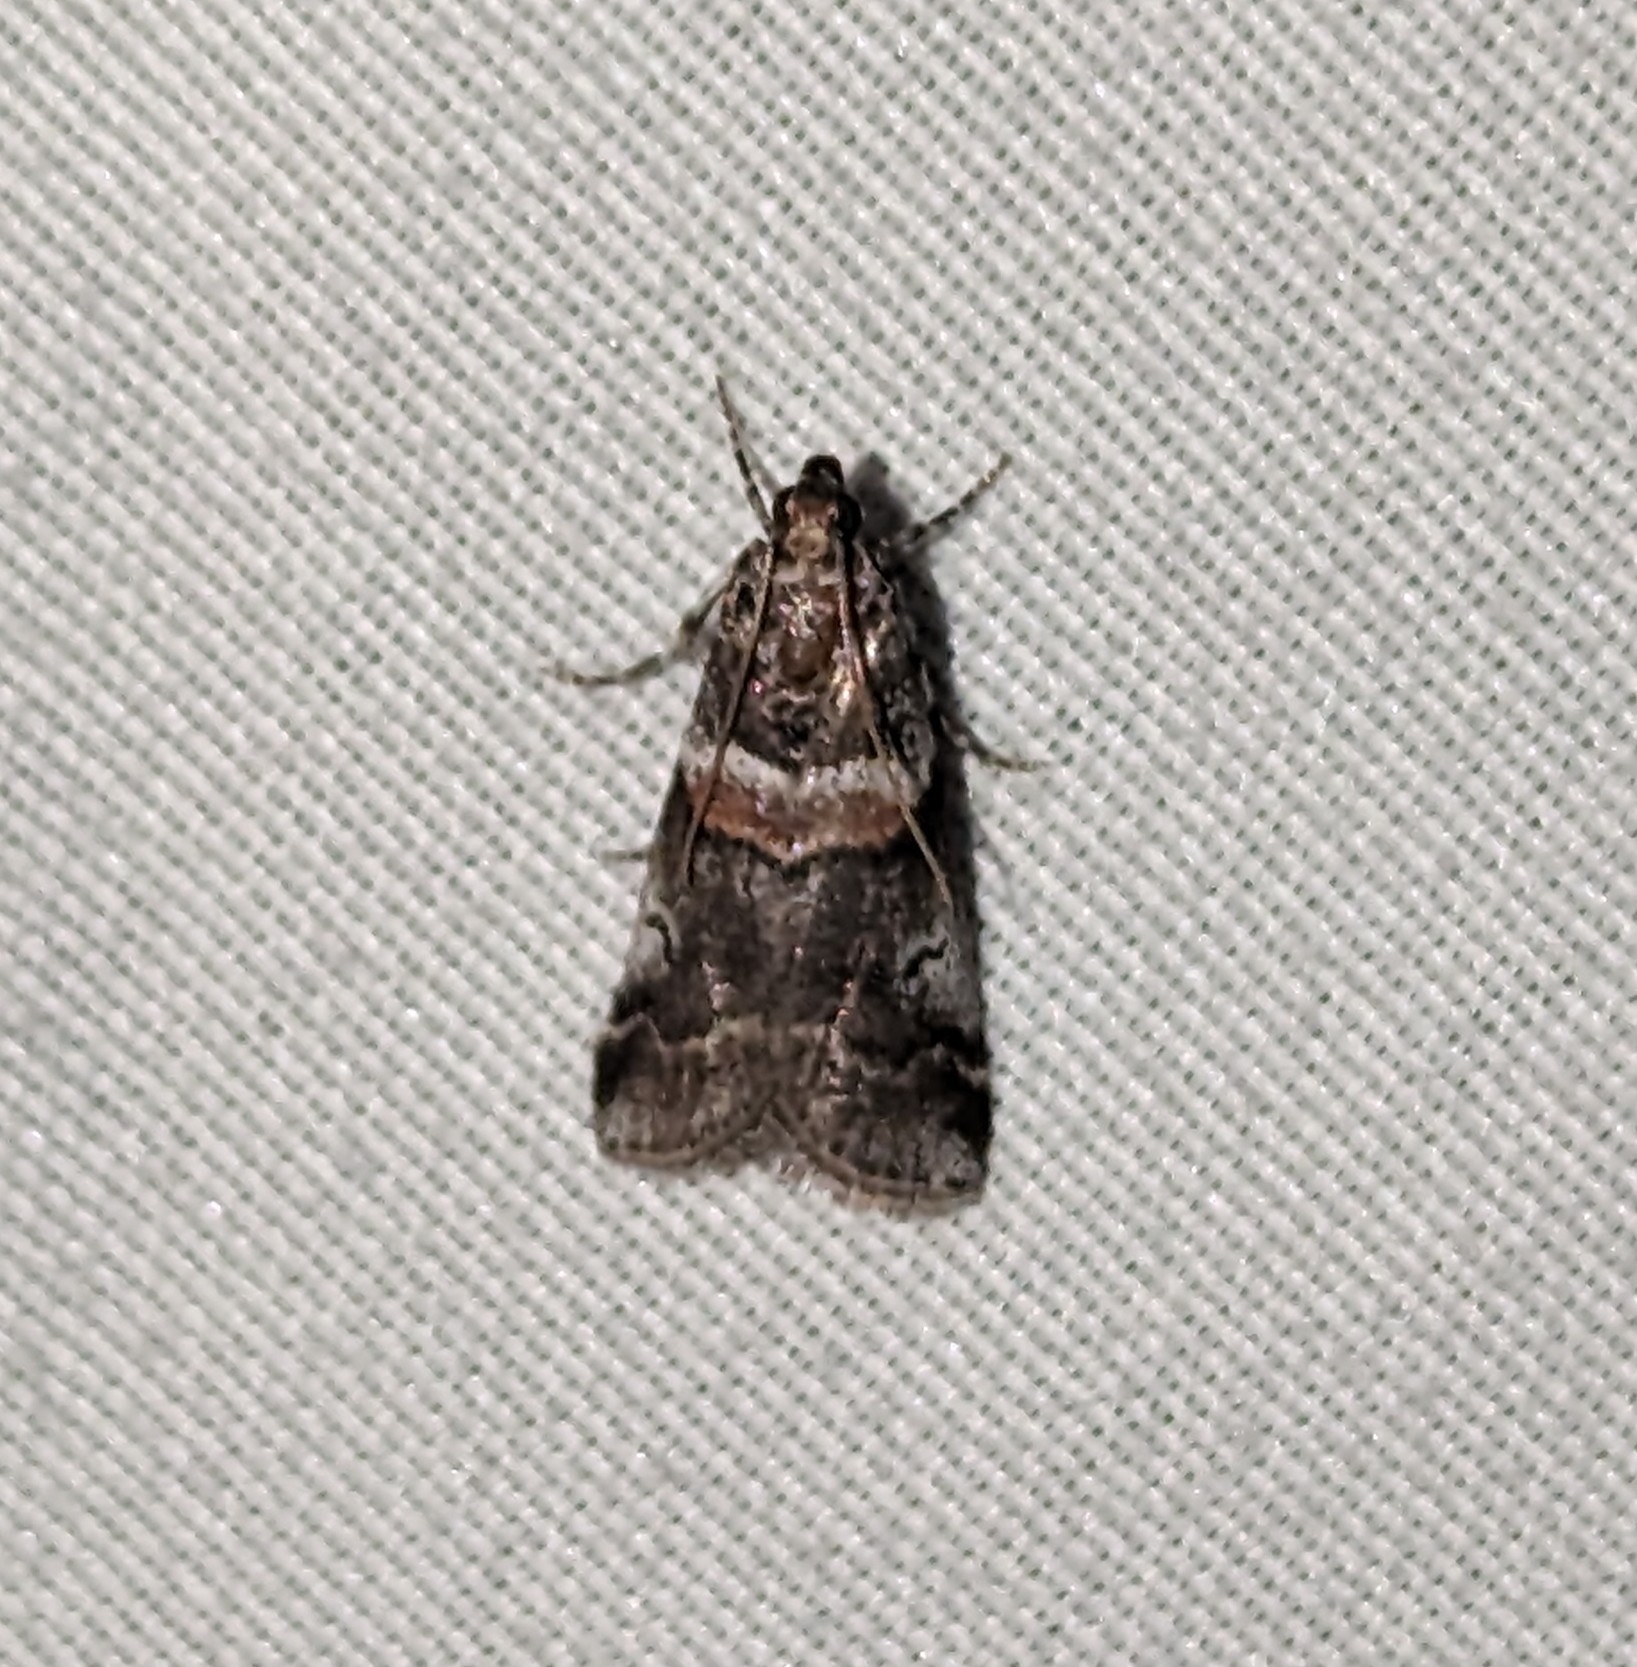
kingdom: Animalia
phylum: Arthropoda
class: Insecta
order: Lepidoptera
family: Pyralidae
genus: Acrobasis
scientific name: Acrobasis tricolorella
